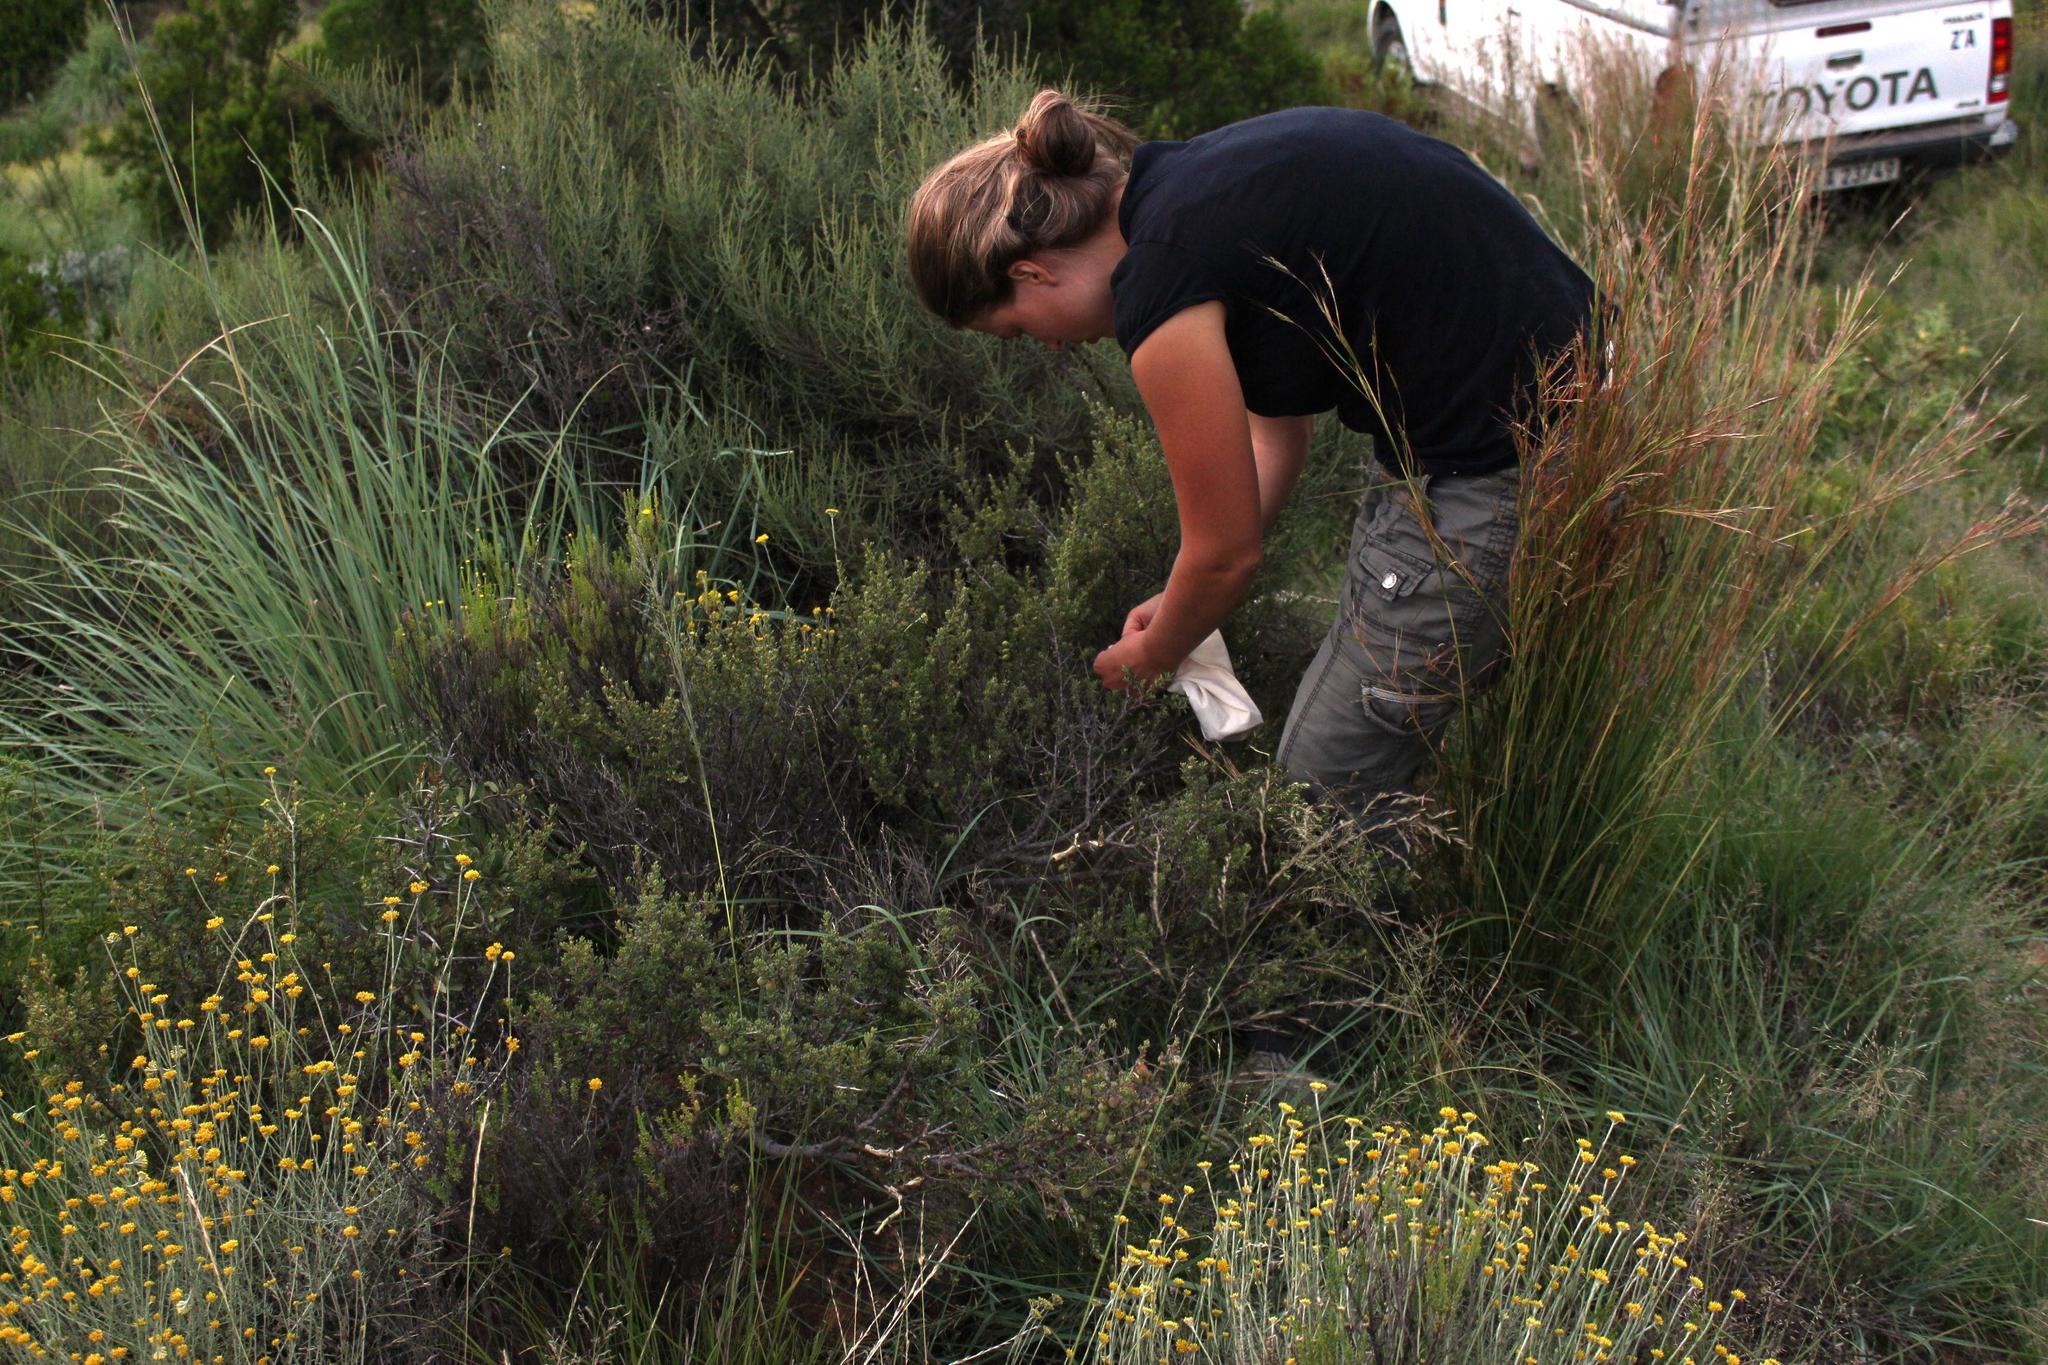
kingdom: Plantae
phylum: Tracheophyta
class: Magnoliopsida
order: Ericales
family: Ebenaceae
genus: Diospyros
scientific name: Diospyros pubescens
